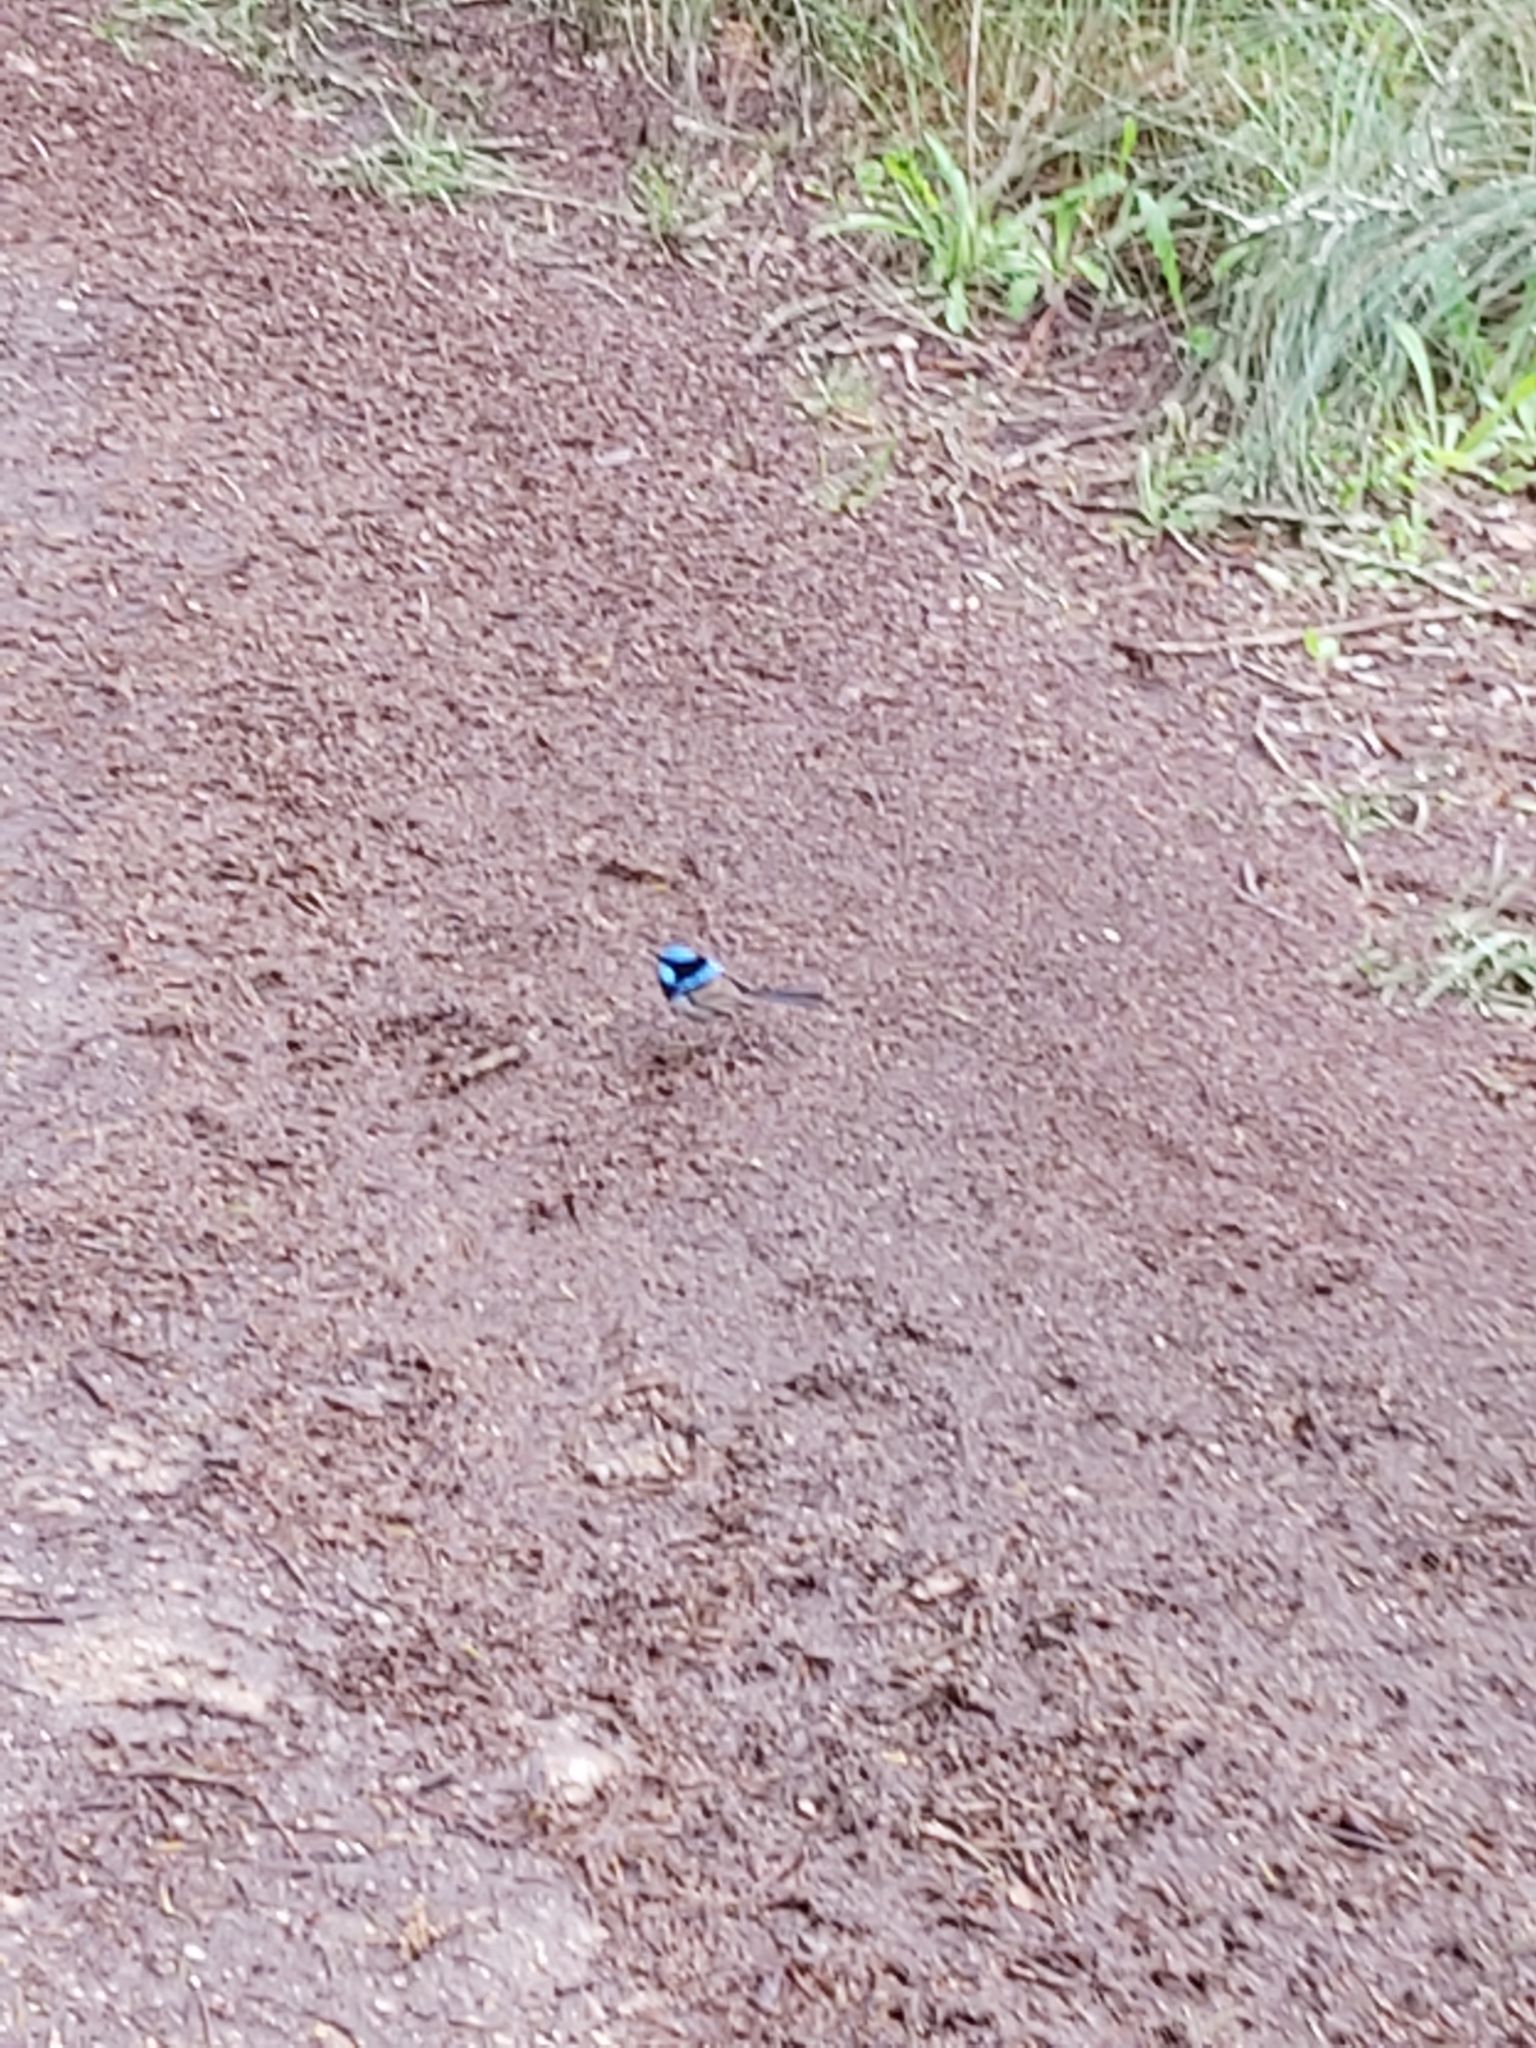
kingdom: Animalia
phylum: Chordata
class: Aves
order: Passeriformes
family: Maluridae
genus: Malurus
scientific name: Malurus cyaneus
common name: Superb fairywren
